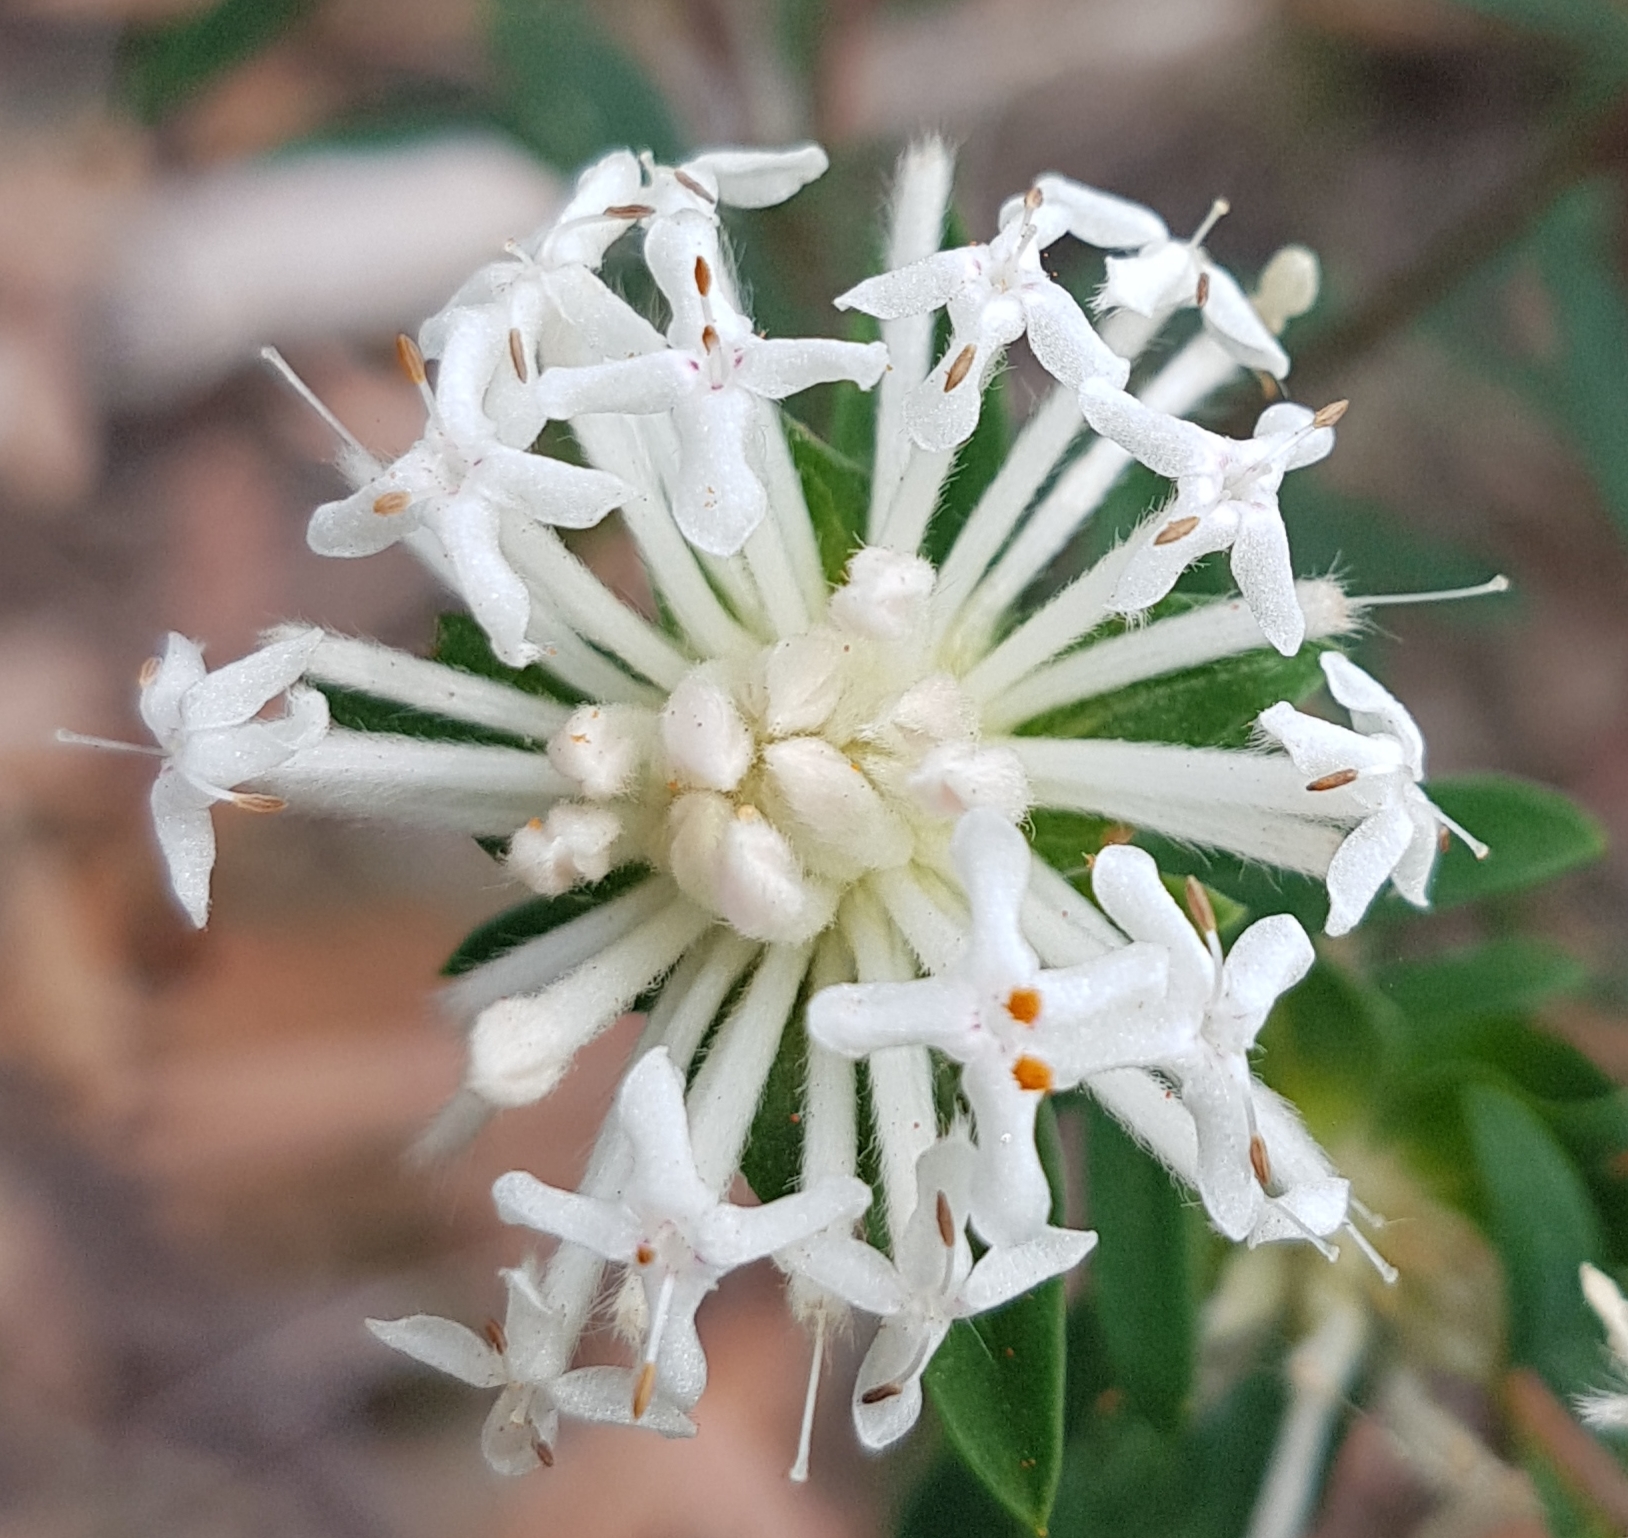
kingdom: Plantae
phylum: Tracheophyta
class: Magnoliopsida
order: Malvales
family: Thymelaeaceae
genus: Pimelea
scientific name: Pimelea linifolia
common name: Queen-of-the-bush
